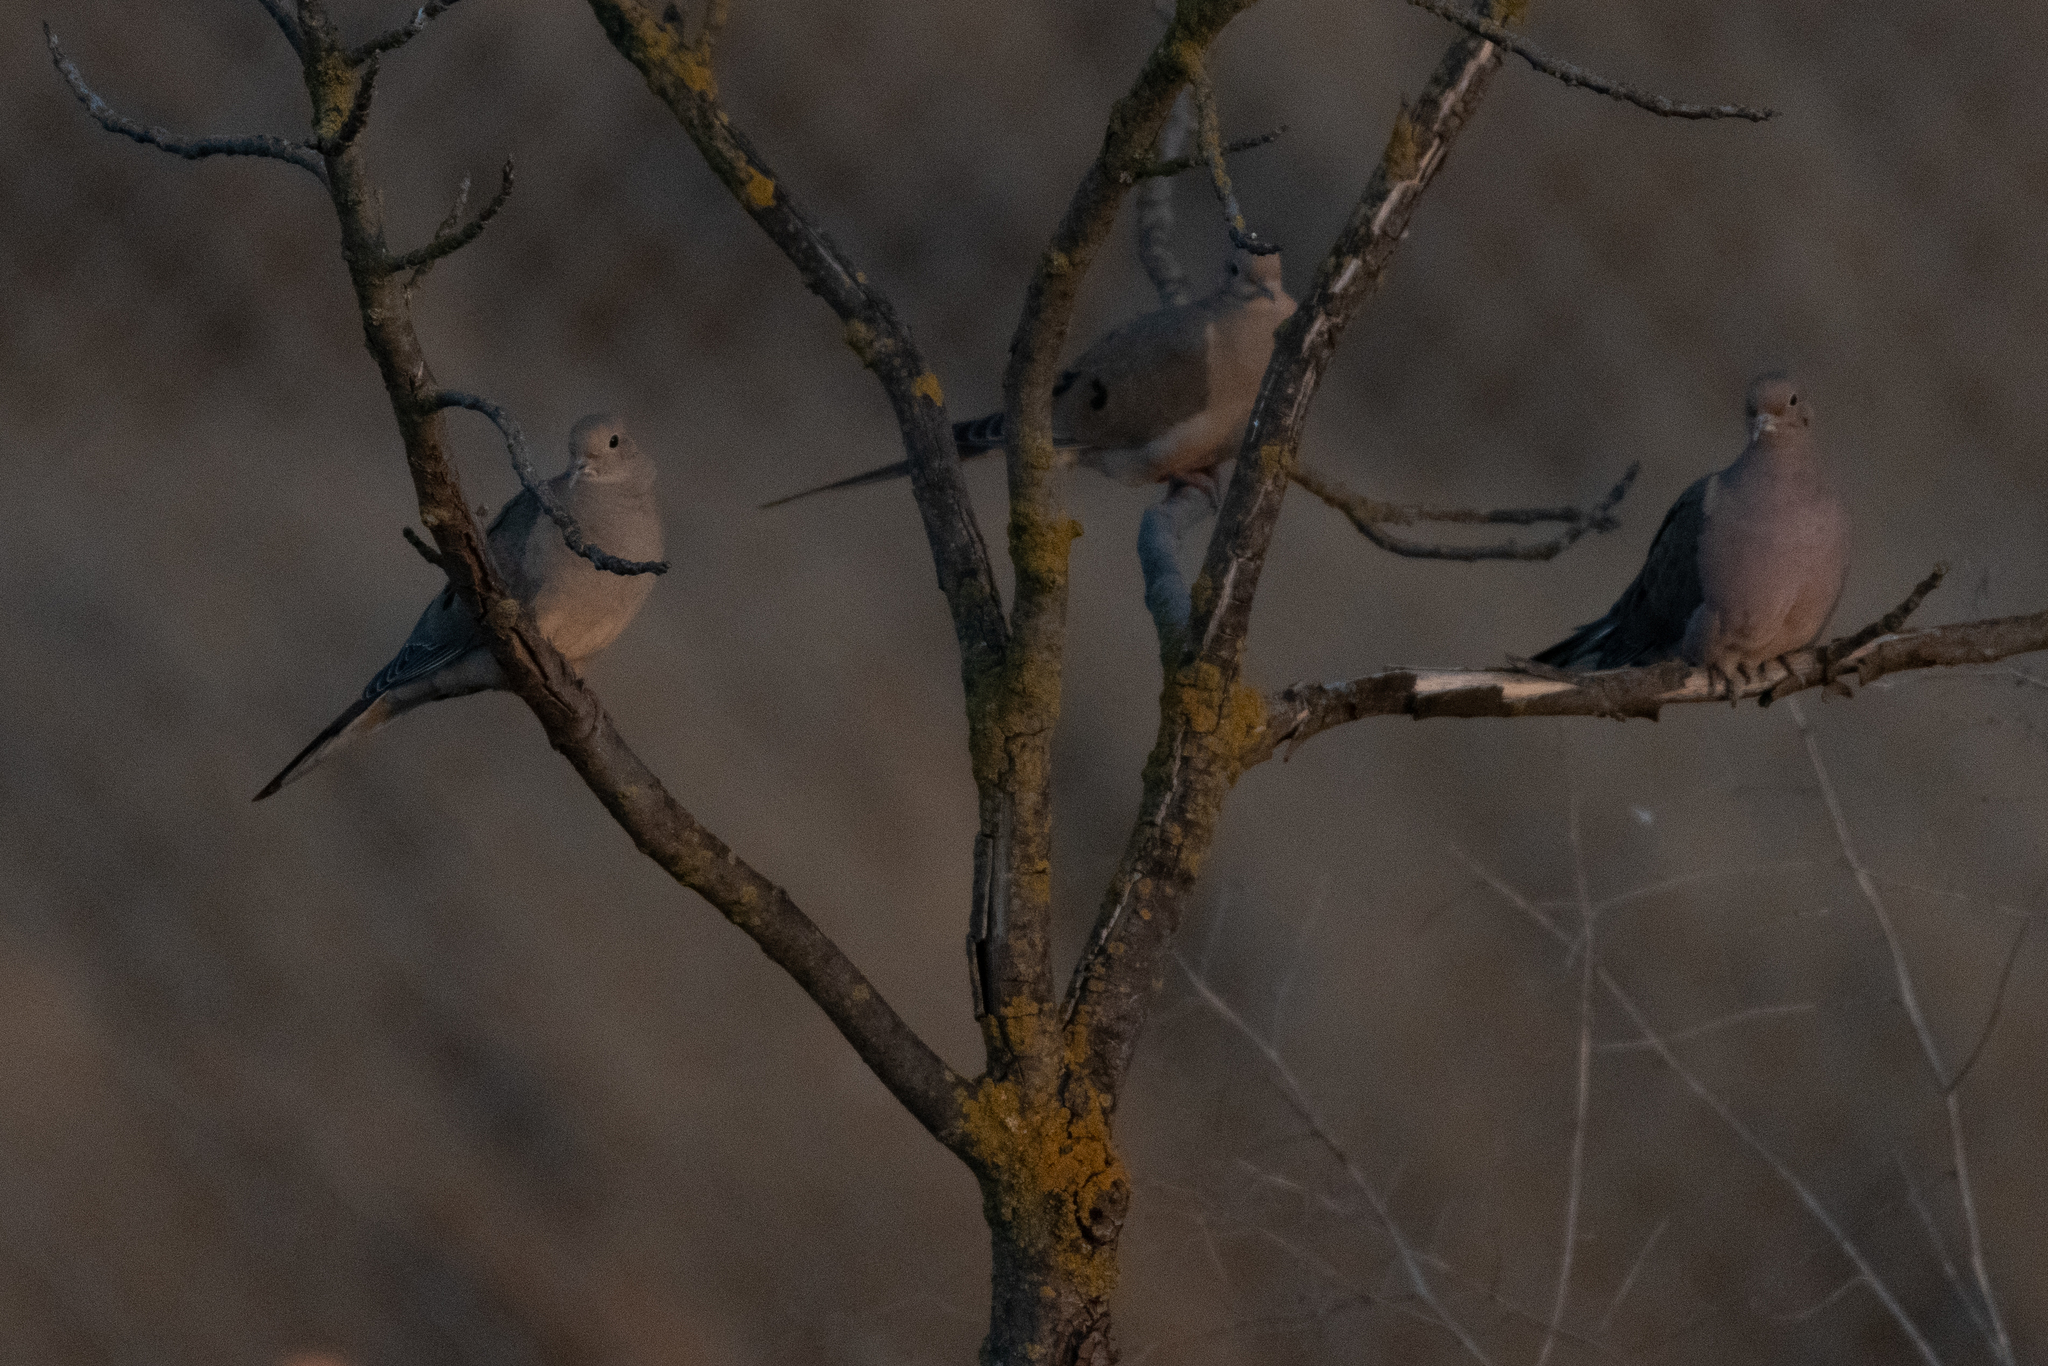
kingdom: Animalia
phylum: Chordata
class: Aves
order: Columbiformes
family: Columbidae
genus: Zenaida
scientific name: Zenaida macroura
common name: Mourning dove
